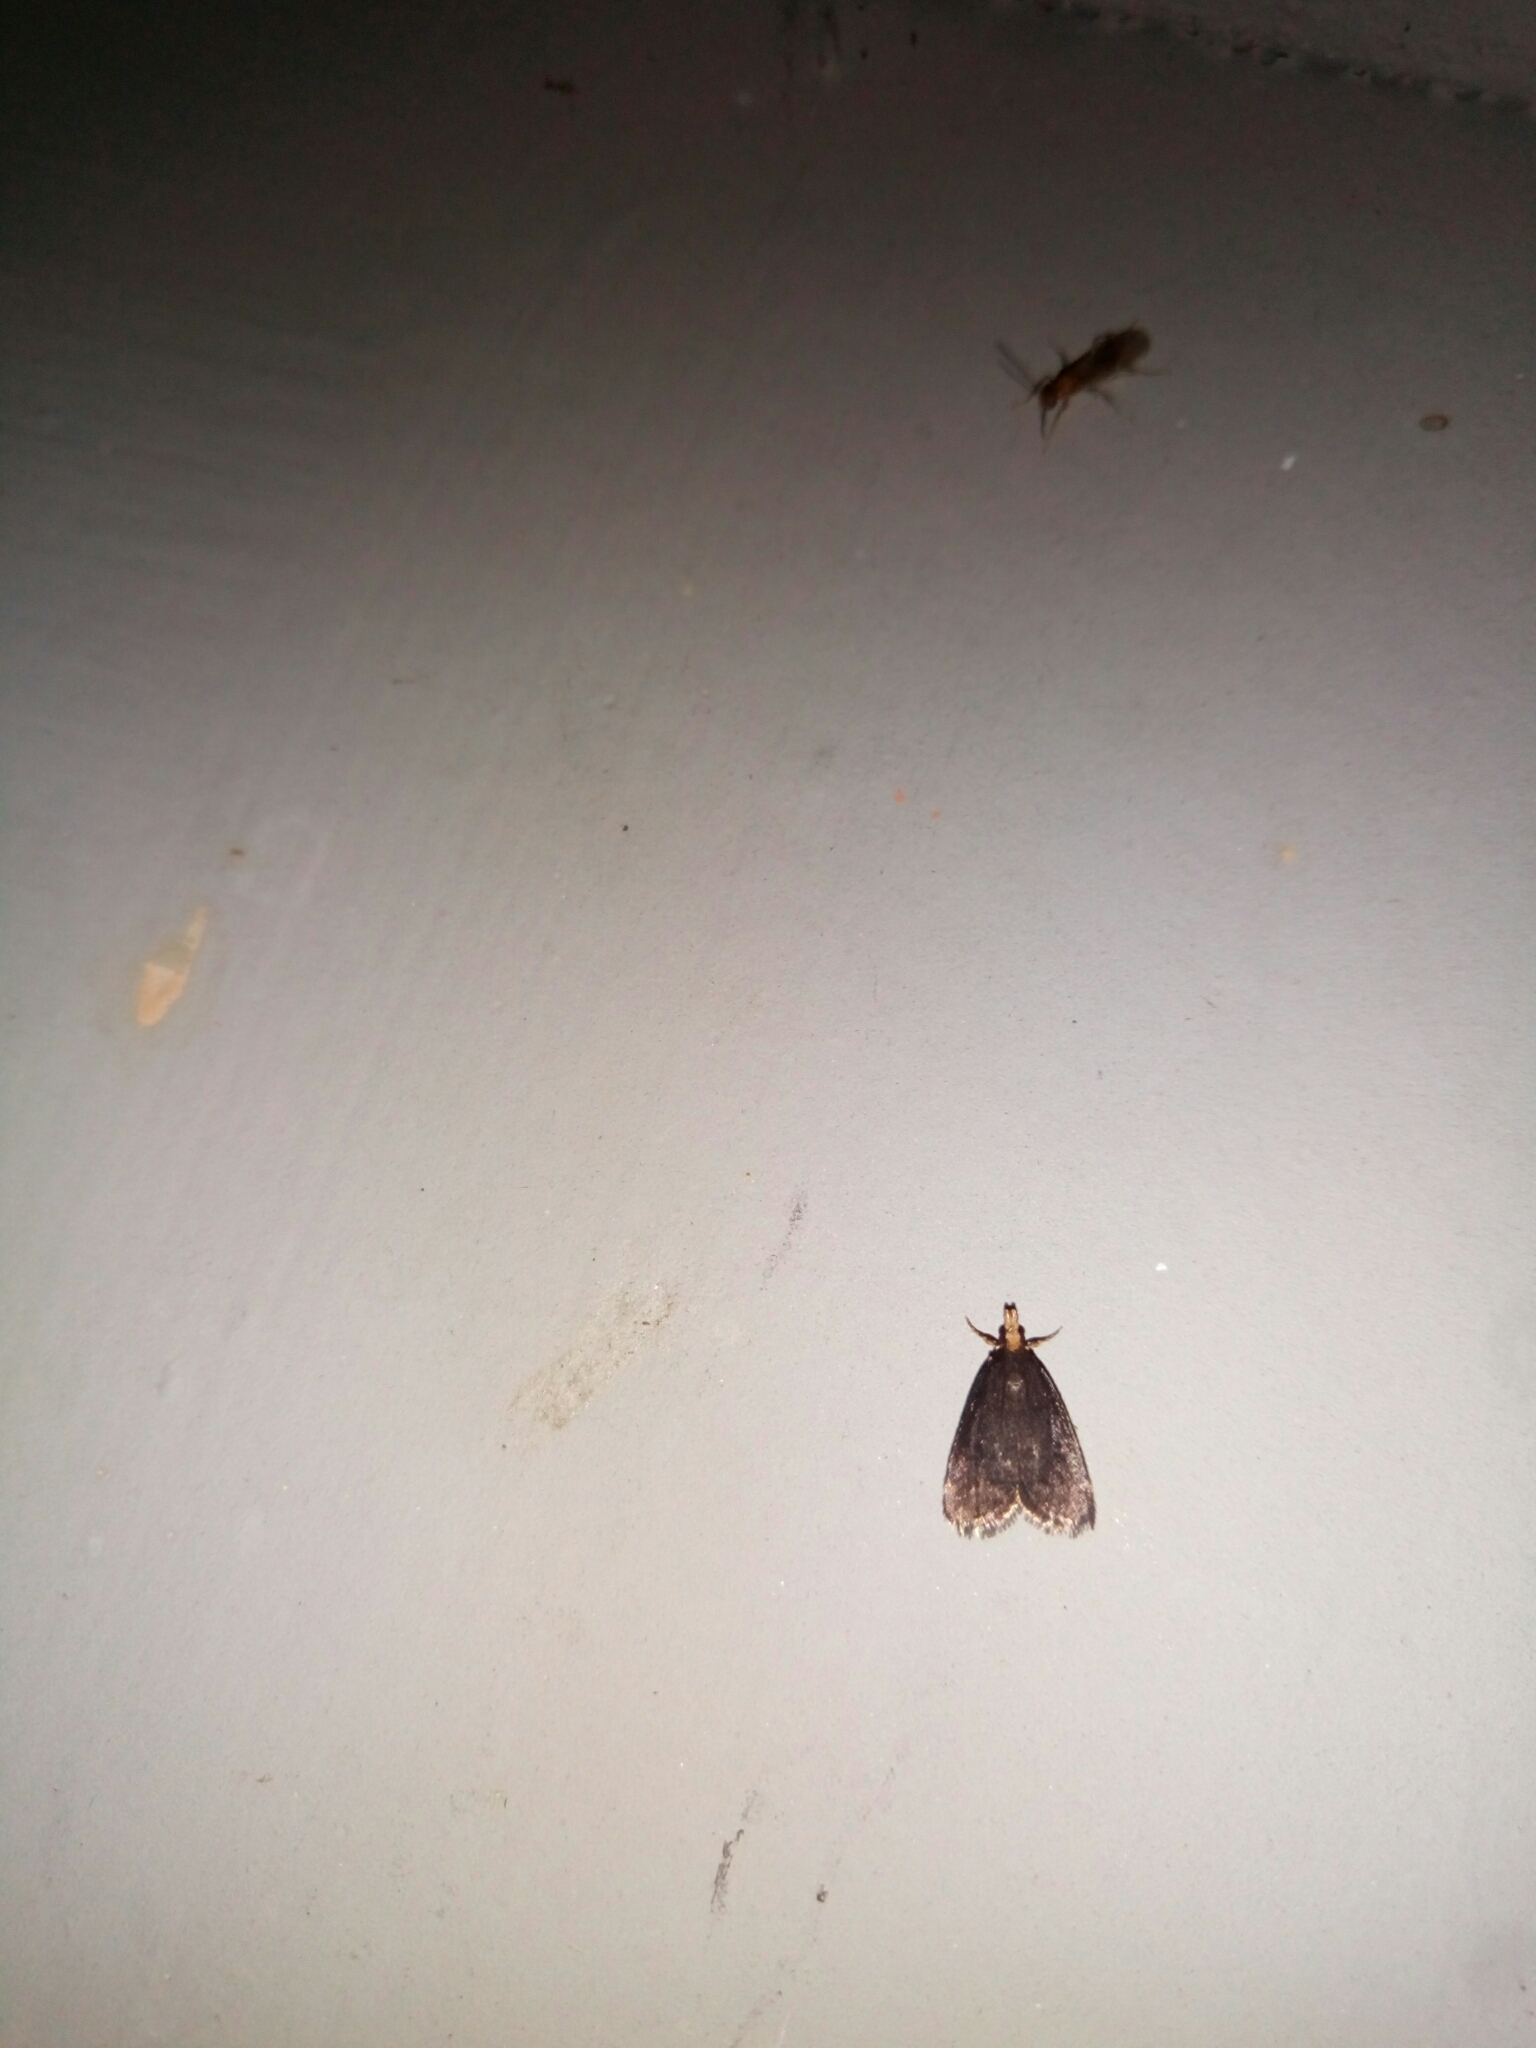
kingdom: Animalia
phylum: Arthropoda
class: Insecta
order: Lepidoptera
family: Crambidae
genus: Pyrausta
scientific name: Pyrausta merrickalis
